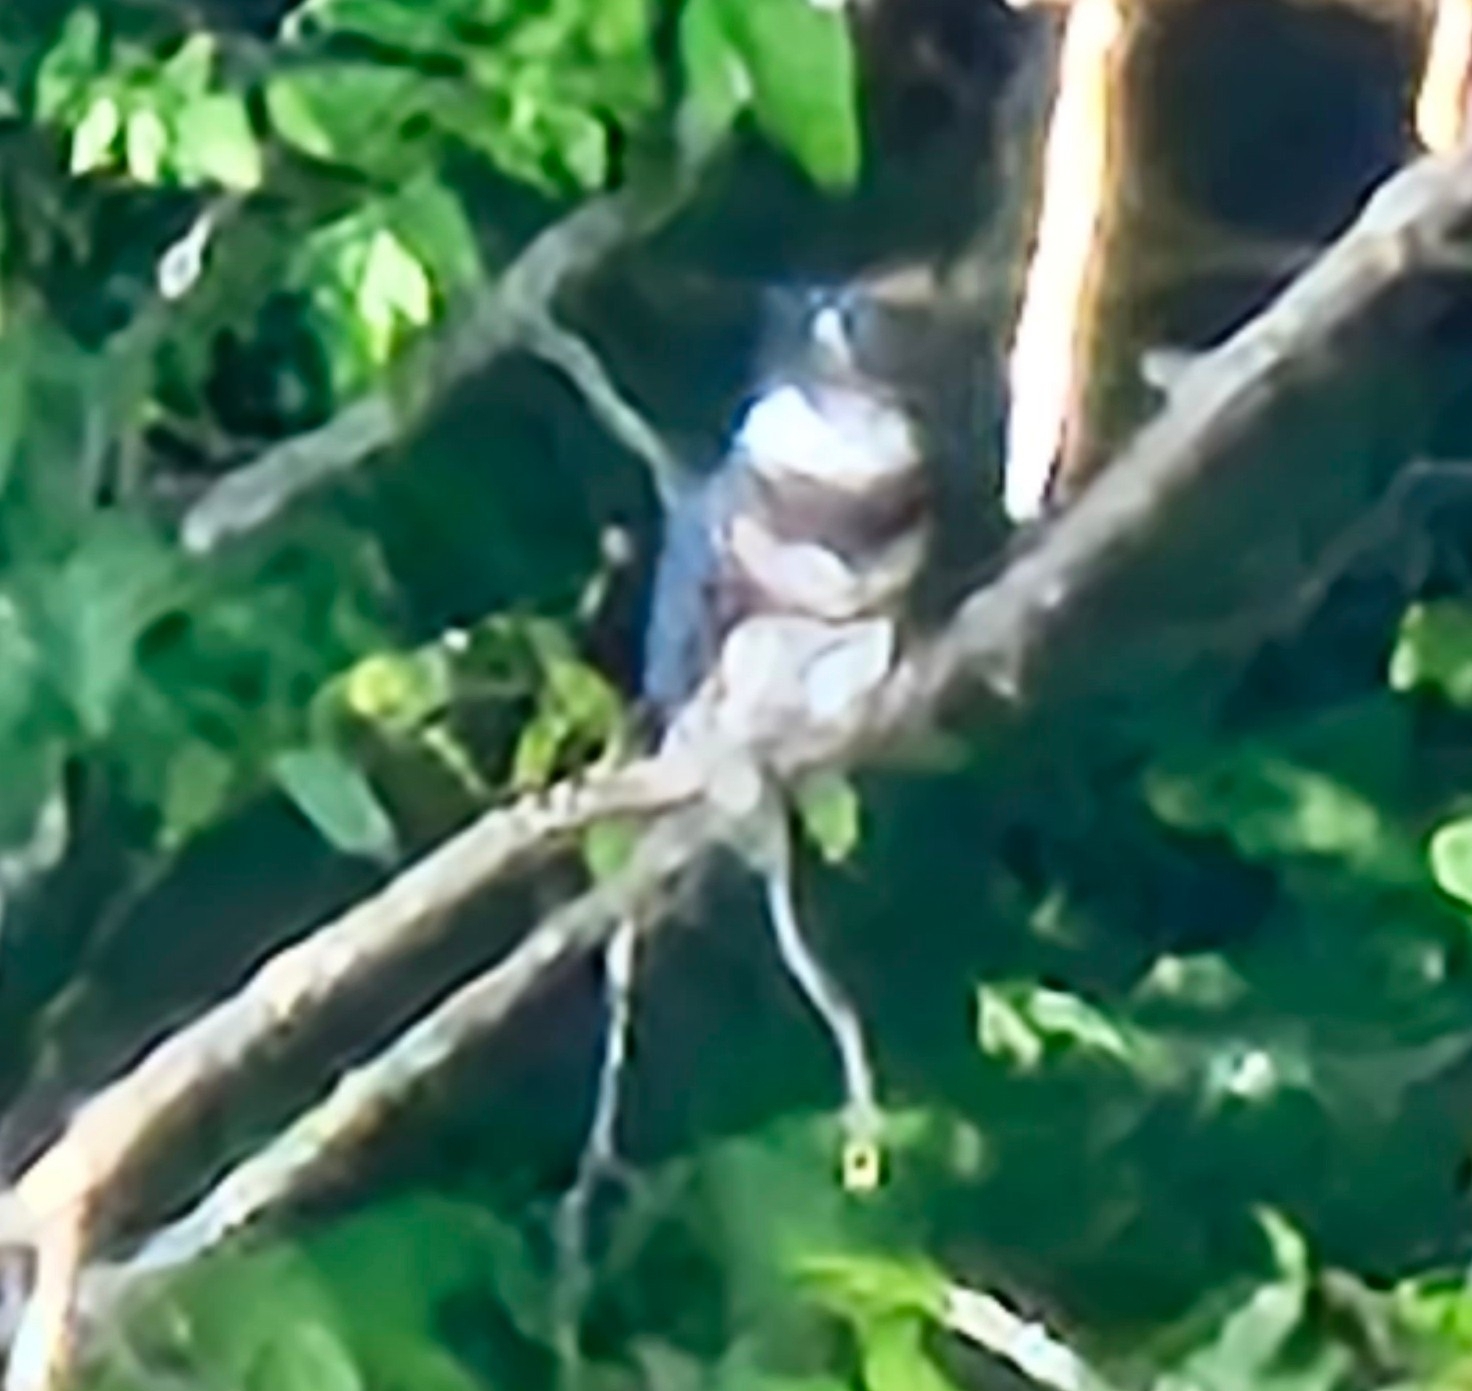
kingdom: Animalia
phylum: Chordata
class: Aves
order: Coraciiformes
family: Alcedinidae
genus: Megaceryle
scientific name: Megaceryle alcyon
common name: Belted kingfisher
